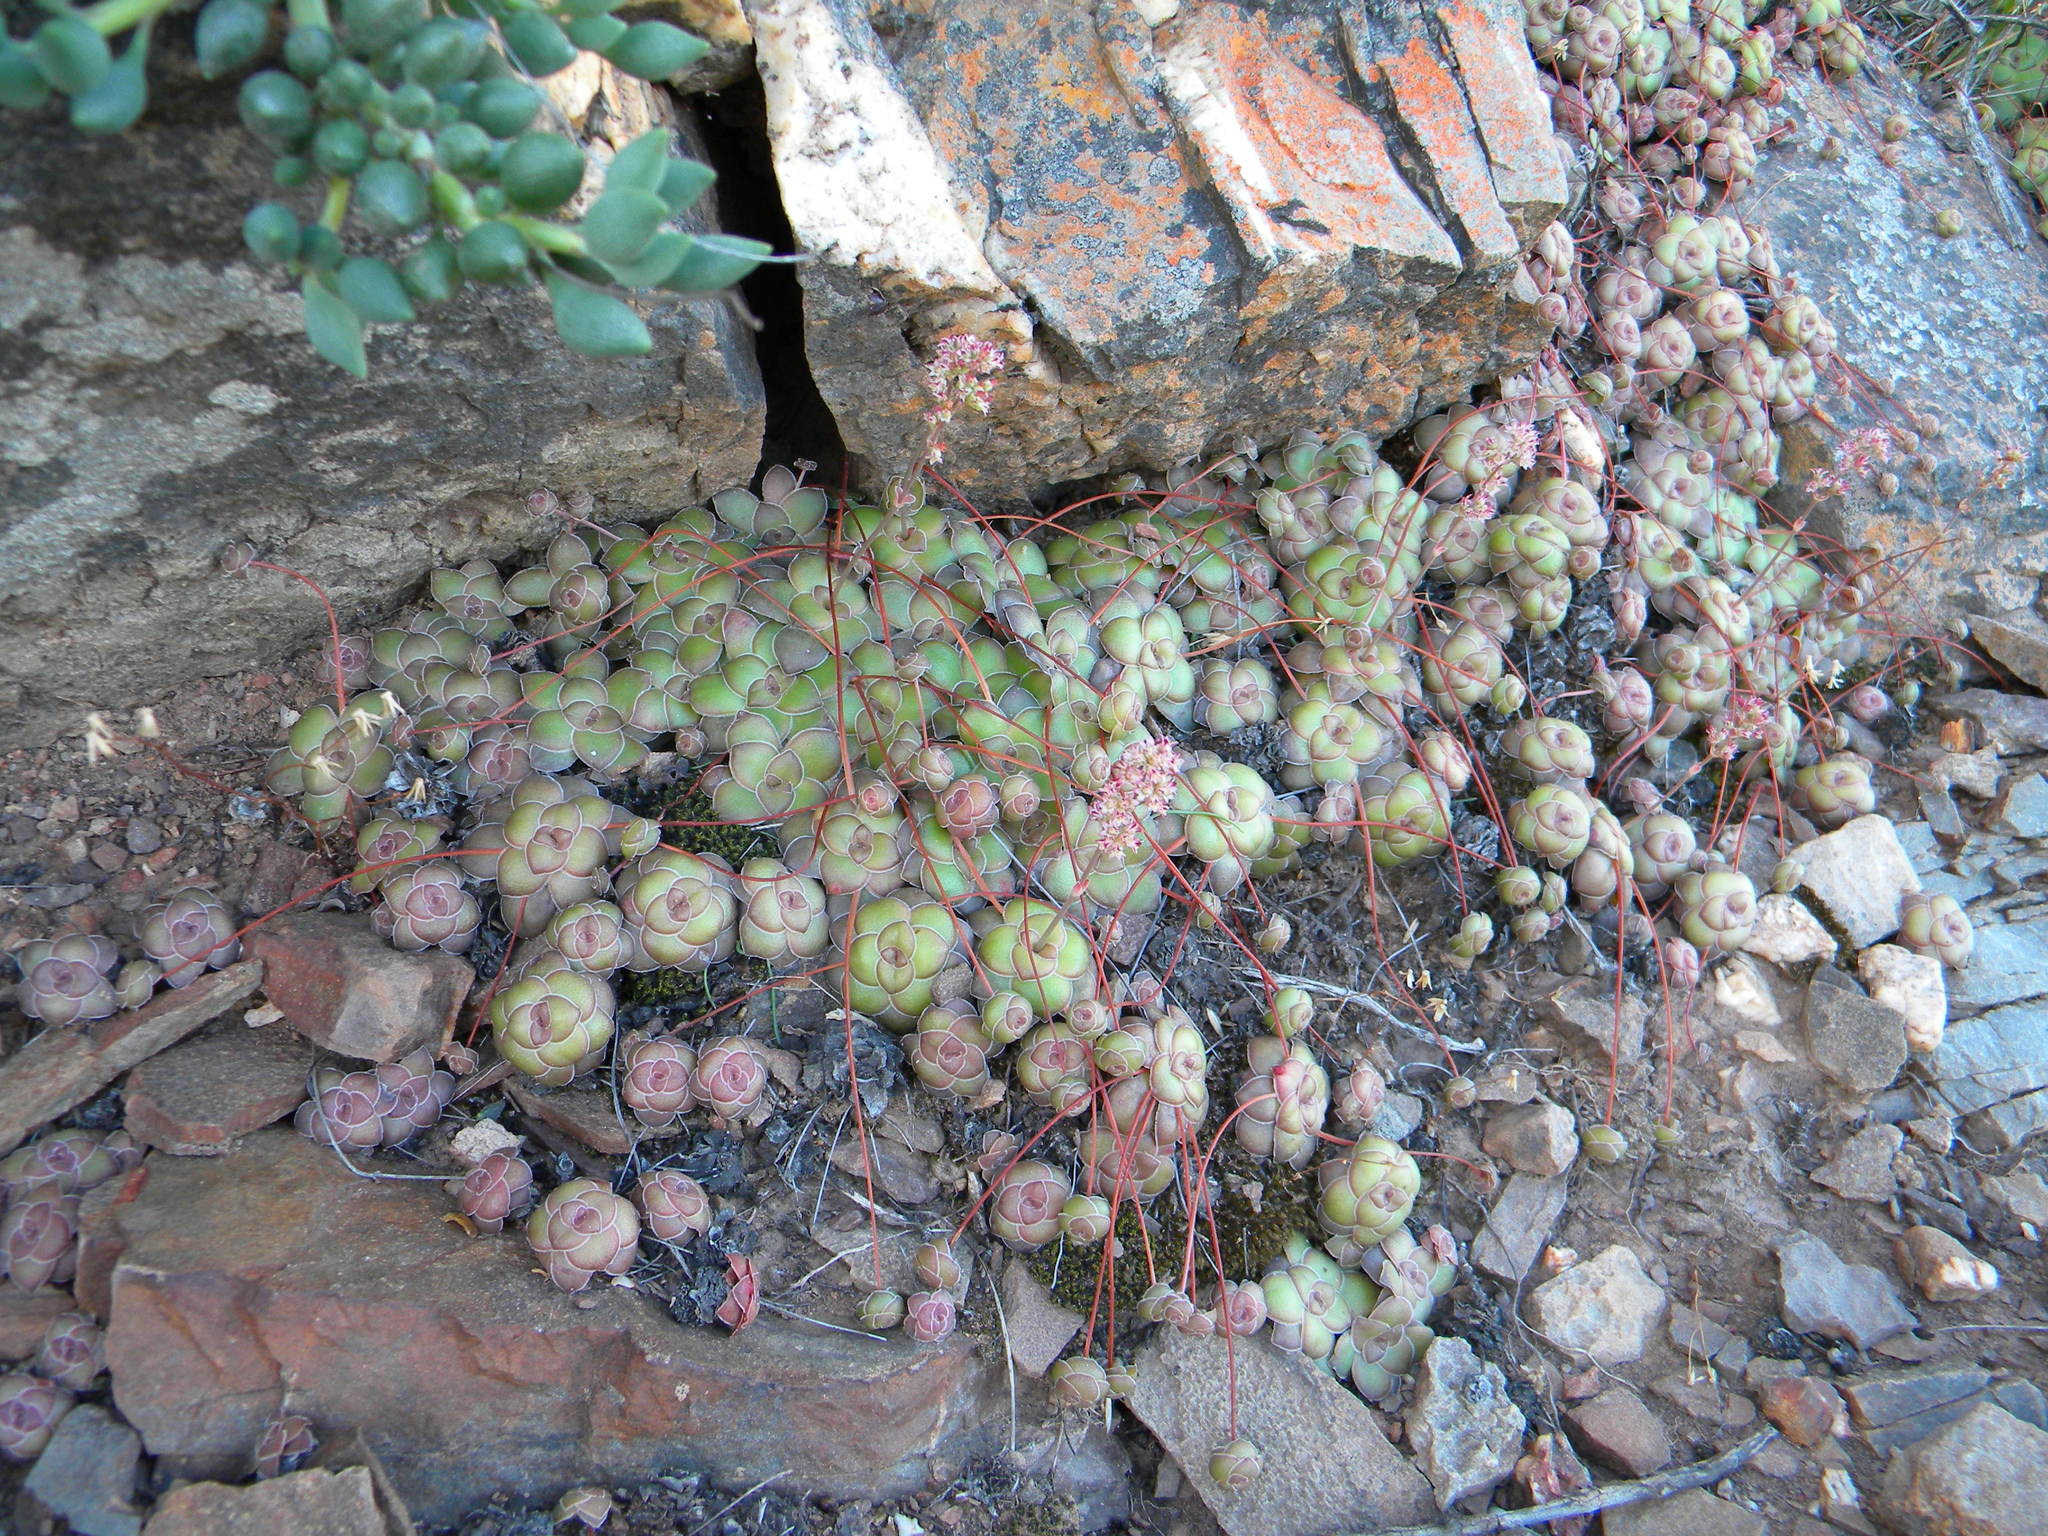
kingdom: Plantae
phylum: Tracheophyta
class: Magnoliopsida
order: Saxifragales
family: Crassulaceae
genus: Crassula
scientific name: Crassula orbicularis
